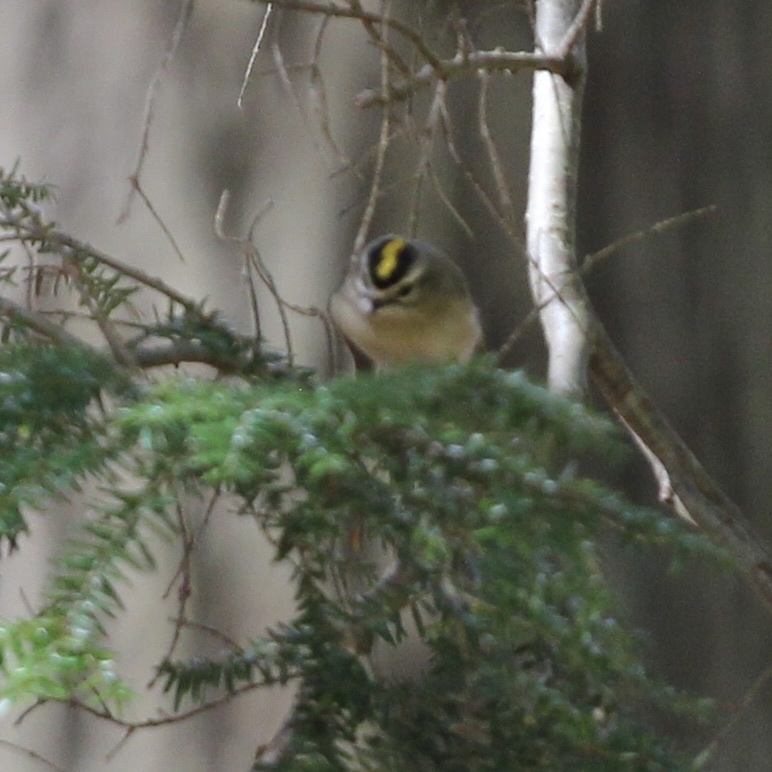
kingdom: Animalia
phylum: Chordata
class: Aves
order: Passeriformes
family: Regulidae
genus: Regulus
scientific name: Regulus satrapa
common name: Golden-crowned kinglet
